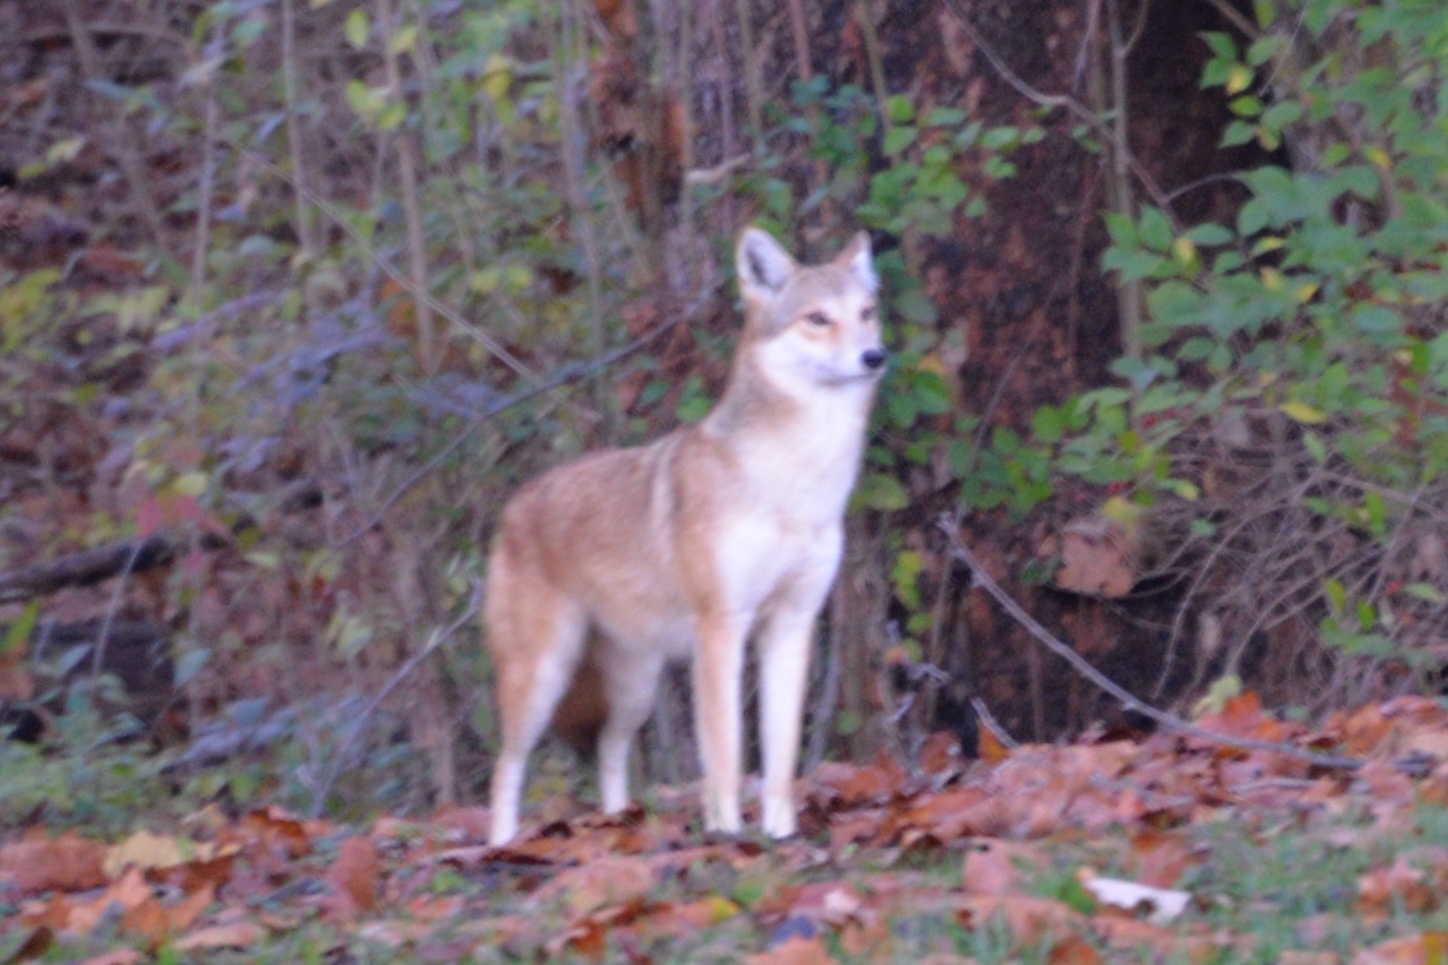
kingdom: Animalia
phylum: Chordata
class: Mammalia
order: Carnivora
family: Canidae
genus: Canis
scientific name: Canis latrans
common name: Coyote
